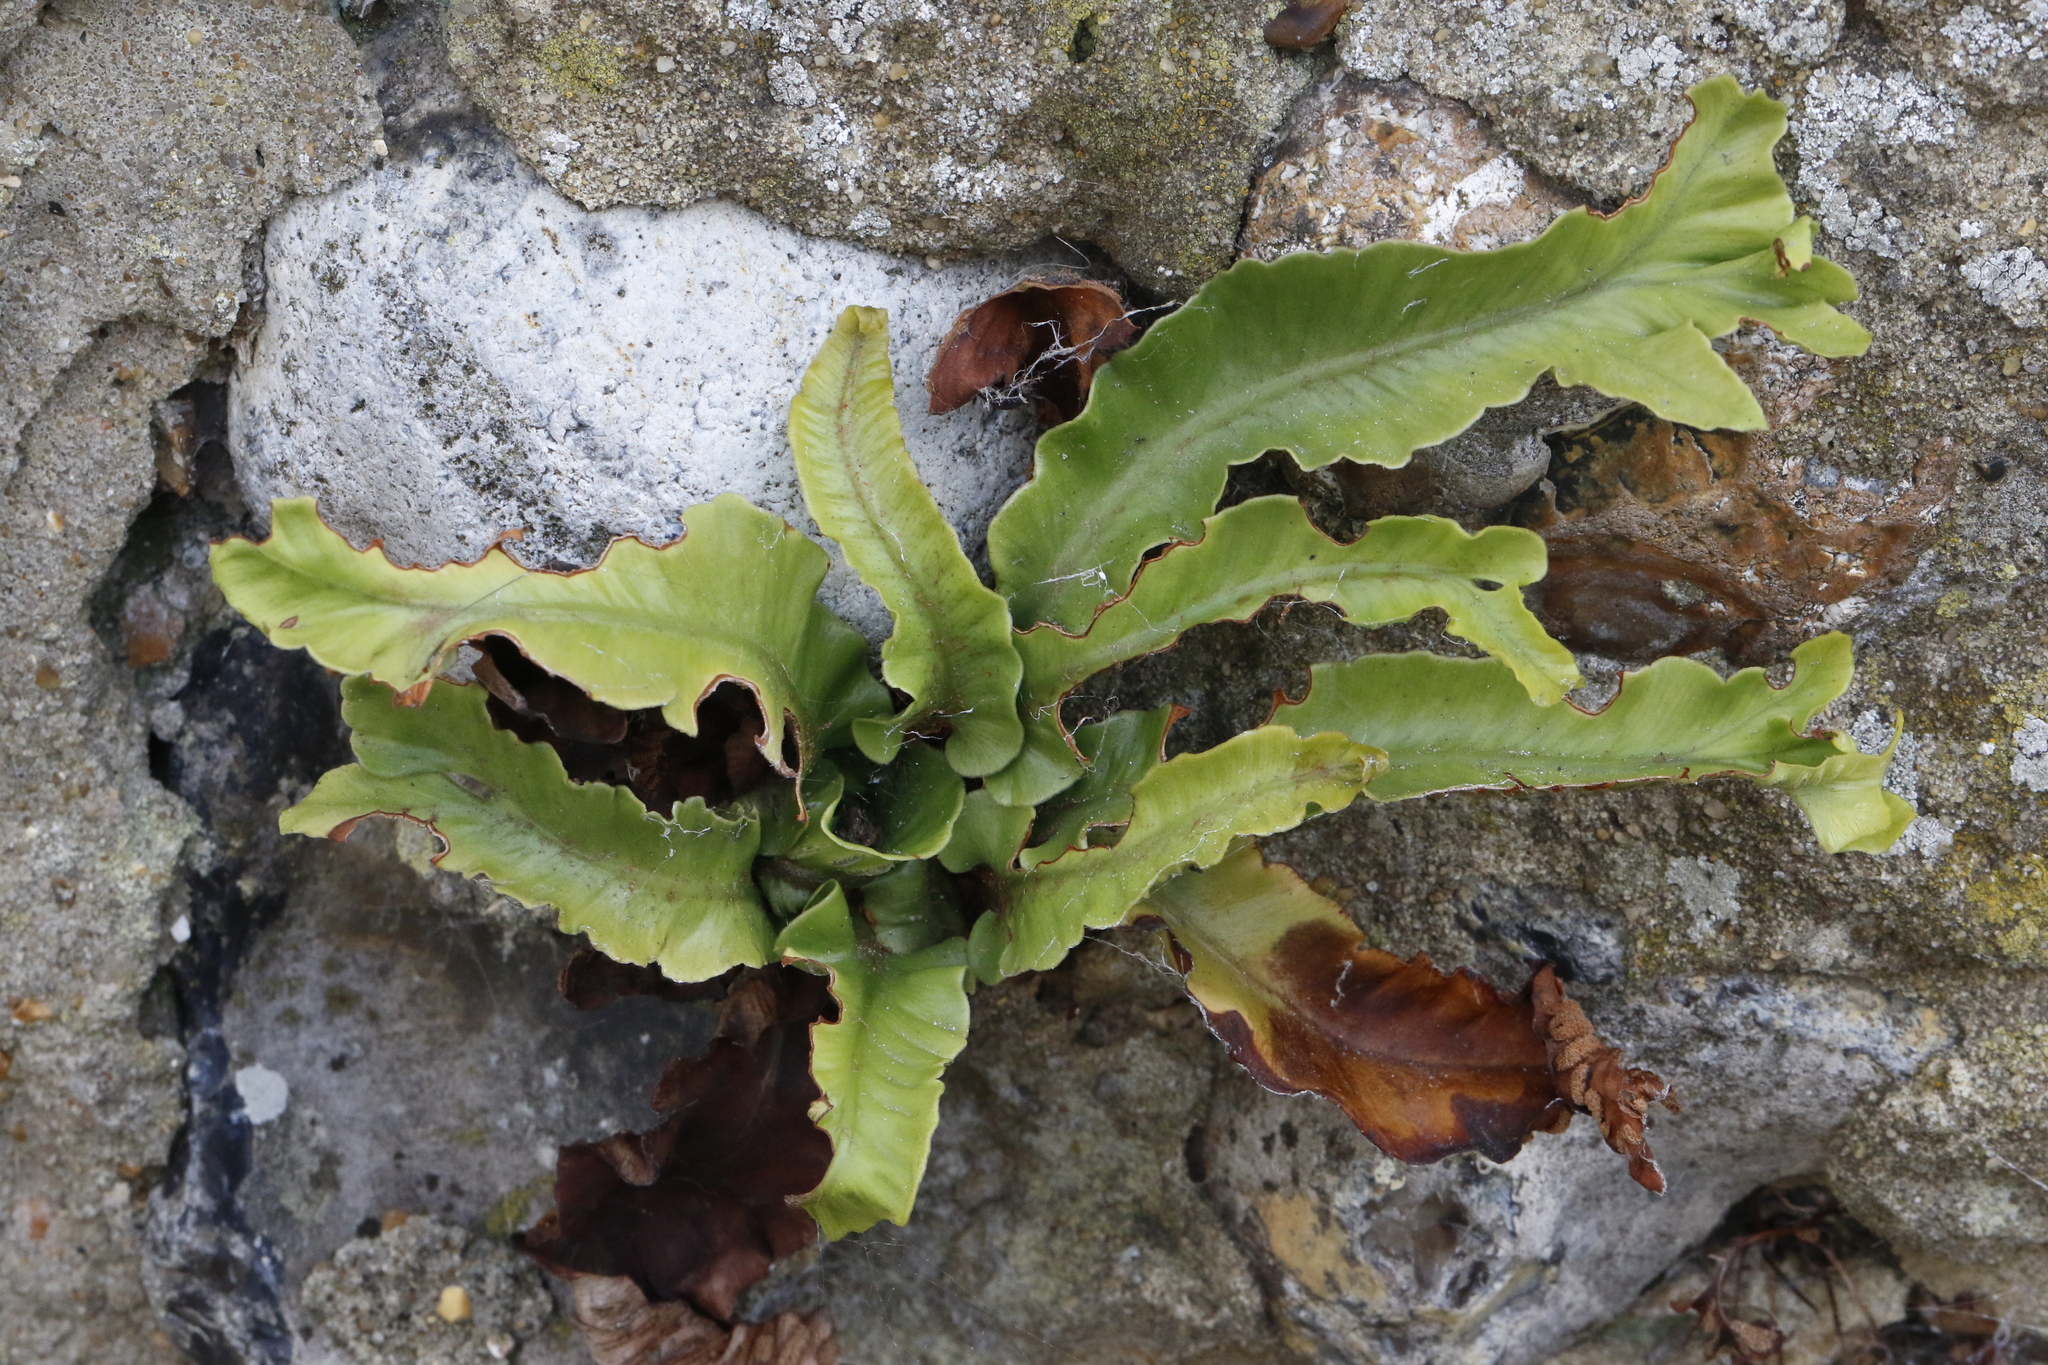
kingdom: Plantae
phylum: Tracheophyta
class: Polypodiopsida
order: Polypodiales
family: Aspleniaceae
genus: Asplenium
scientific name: Asplenium scolopendrium
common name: Hart's-tongue fern
